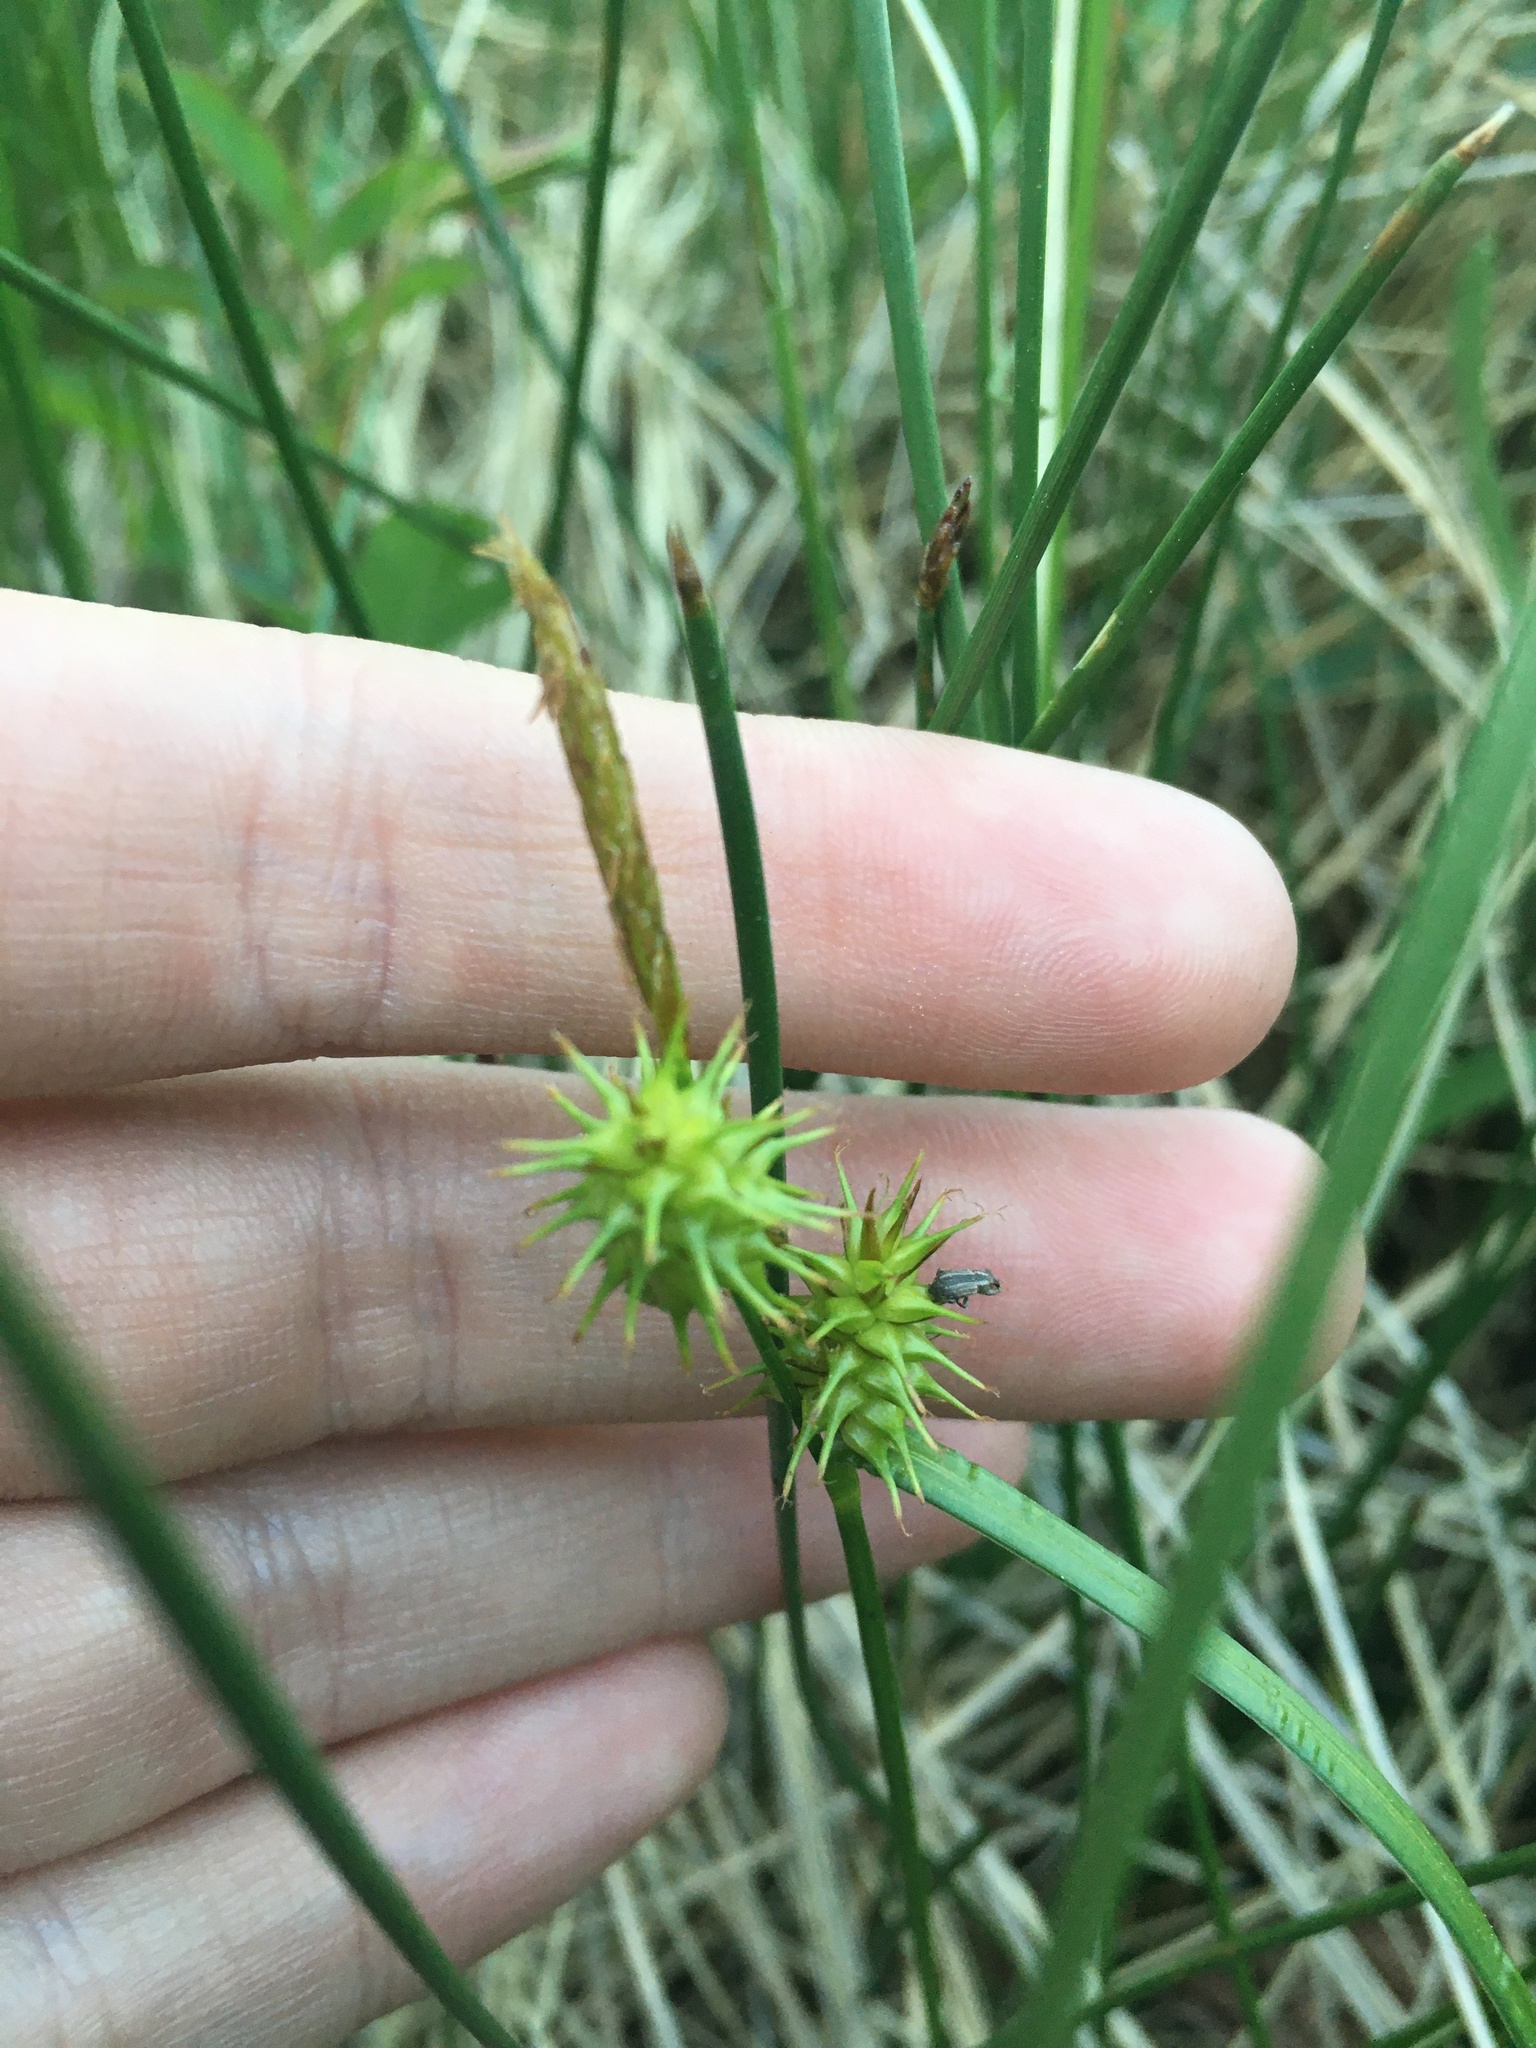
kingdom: Plantae
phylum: Tracheophyta
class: Liliopsida
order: Poales
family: Cyperaceae
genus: Carex
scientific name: Carex flava
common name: Large yellow-sedge
